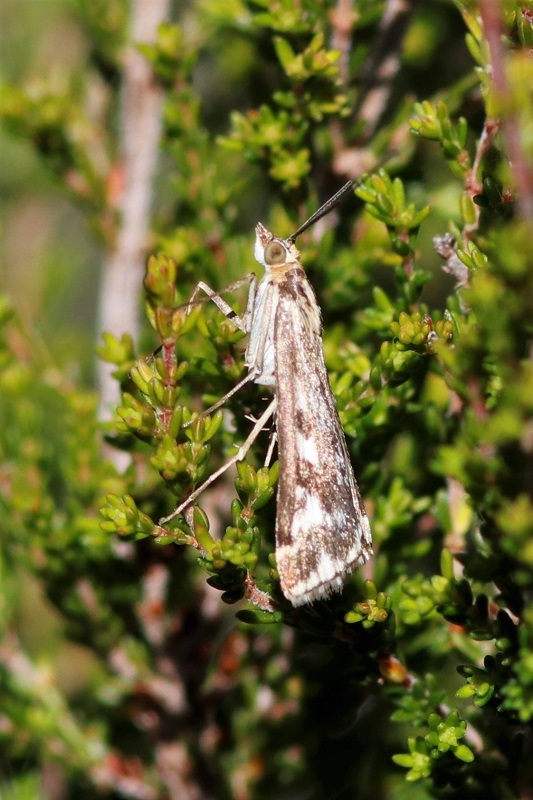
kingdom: Animalia
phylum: Arthropoda
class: Insecta
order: Lepidoptera
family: Crambidae
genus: Loxostege
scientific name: Loxostege frustalis
